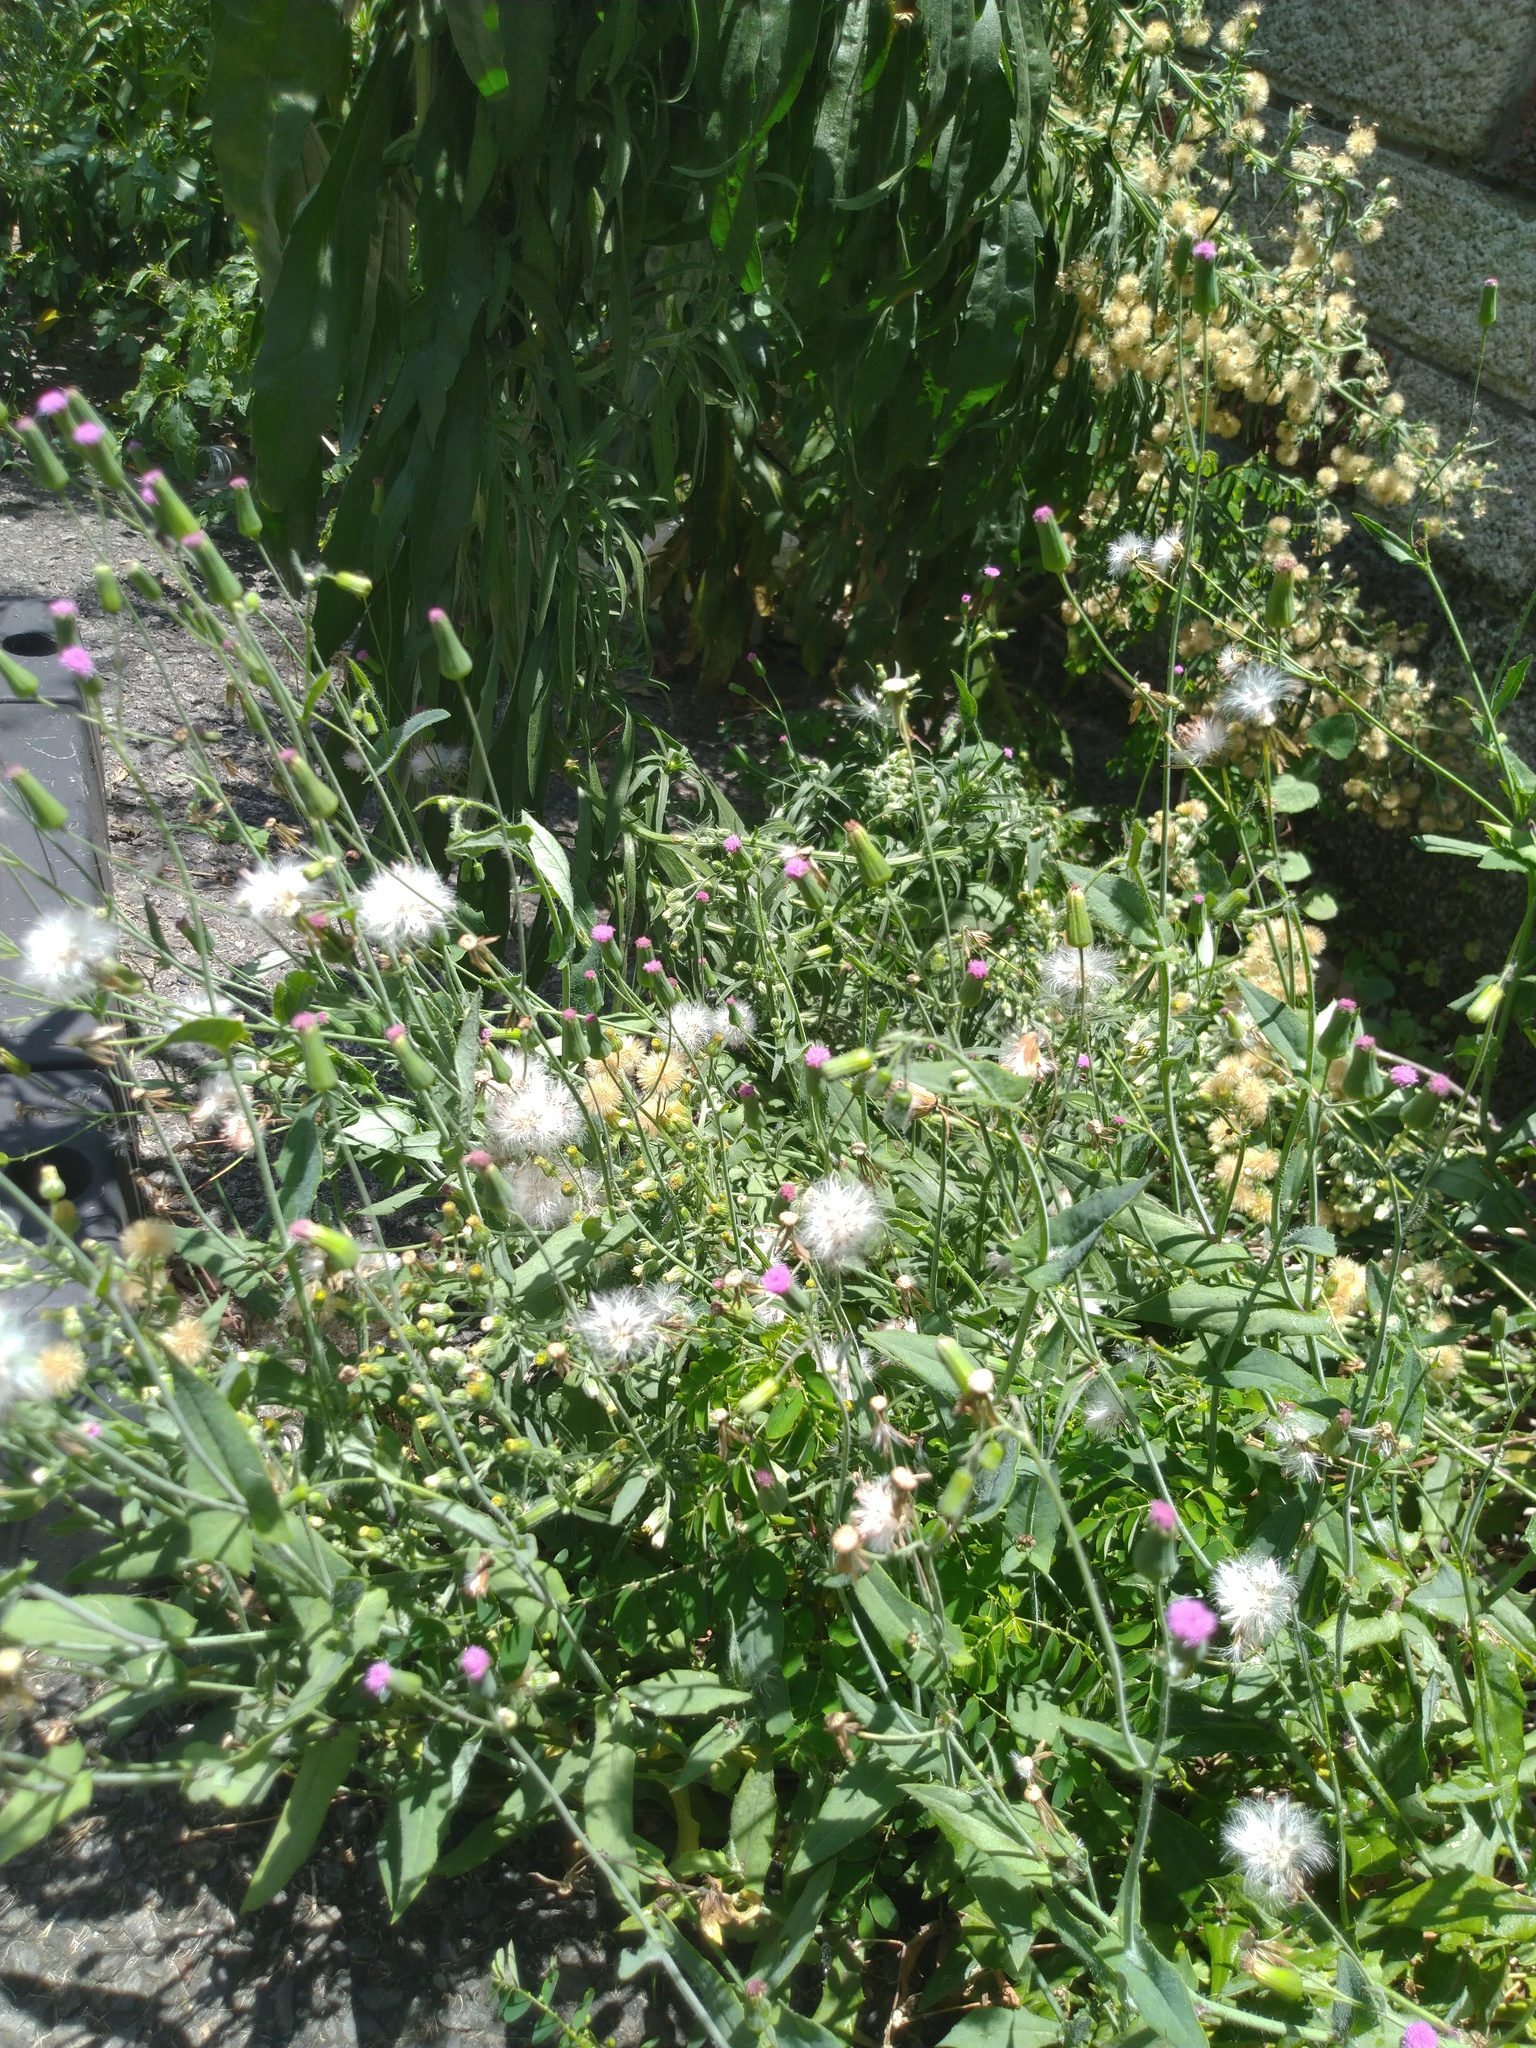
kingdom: Plantae
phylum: Tracheophyta
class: Magnoliopsida
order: Asterales
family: Asteraceae
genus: Emilia
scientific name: Emilia javanica
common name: Tassel-flower
